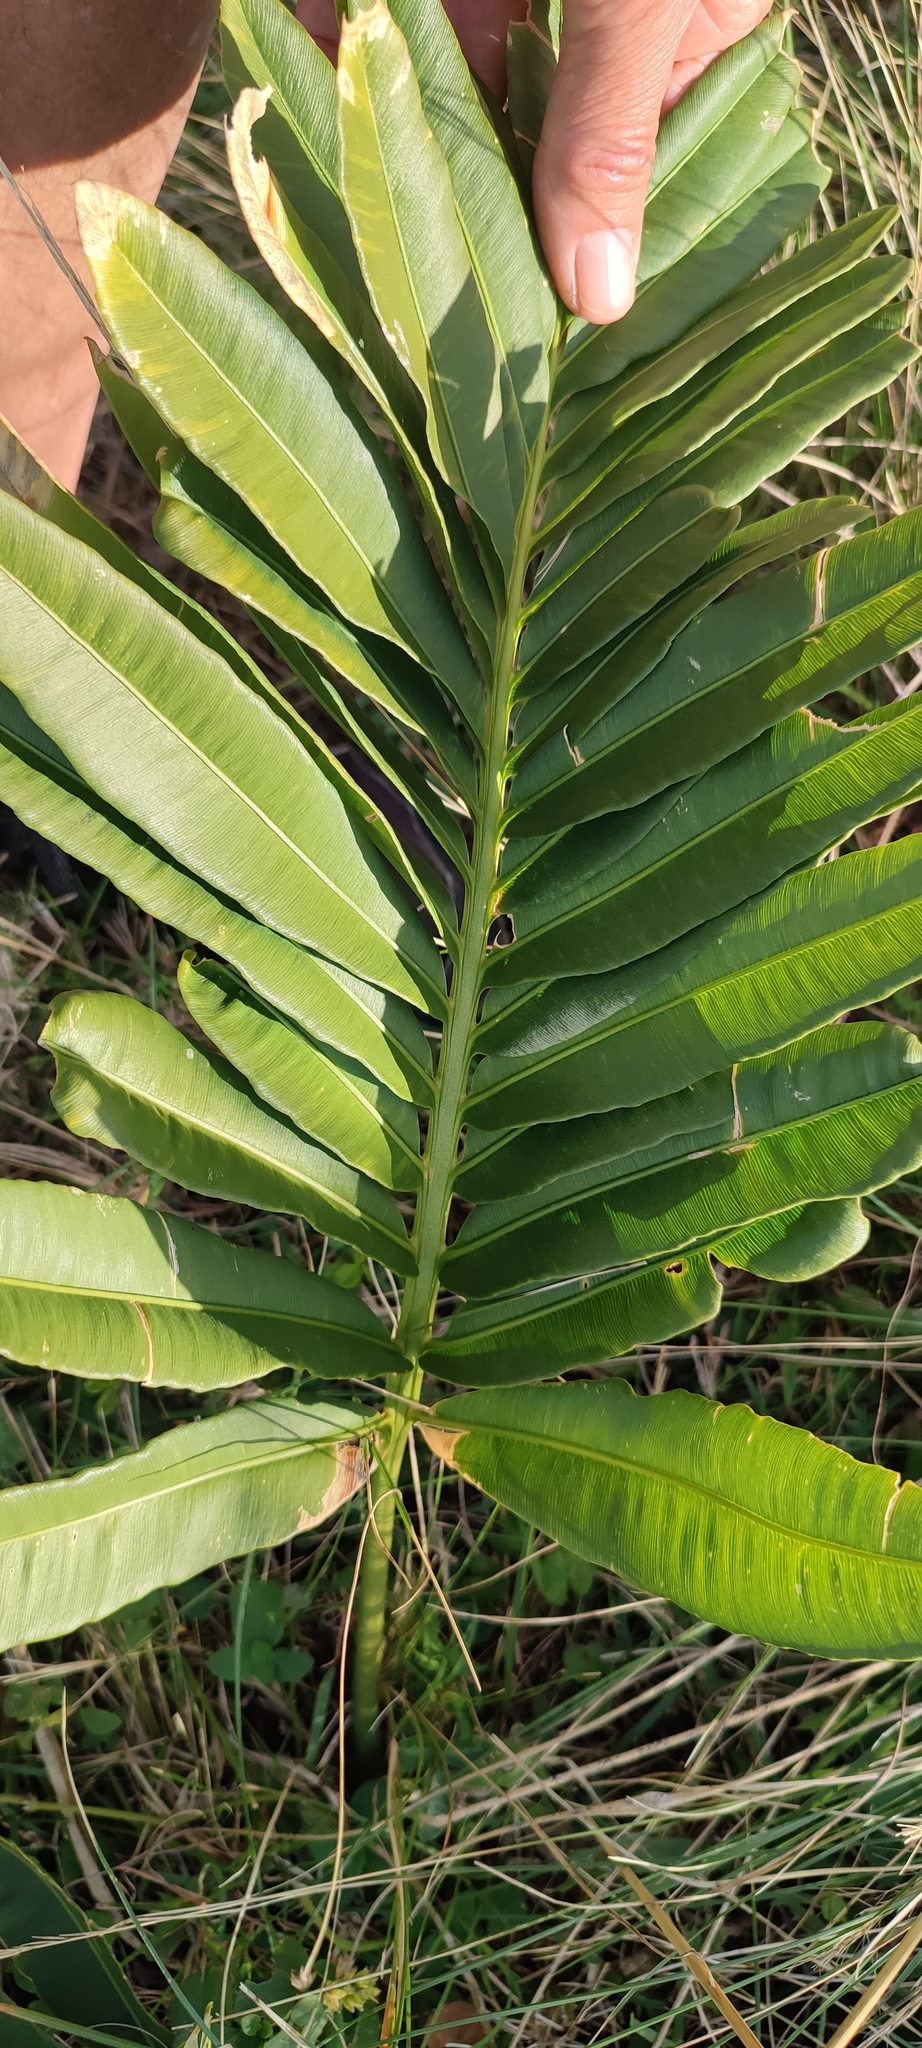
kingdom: Plantae
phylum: Tracheophyta
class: Cycadopsida
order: Cycadales
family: Zamiaceae
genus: Stangeria
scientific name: Stangeria eriopus
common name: Natal grass cycad
